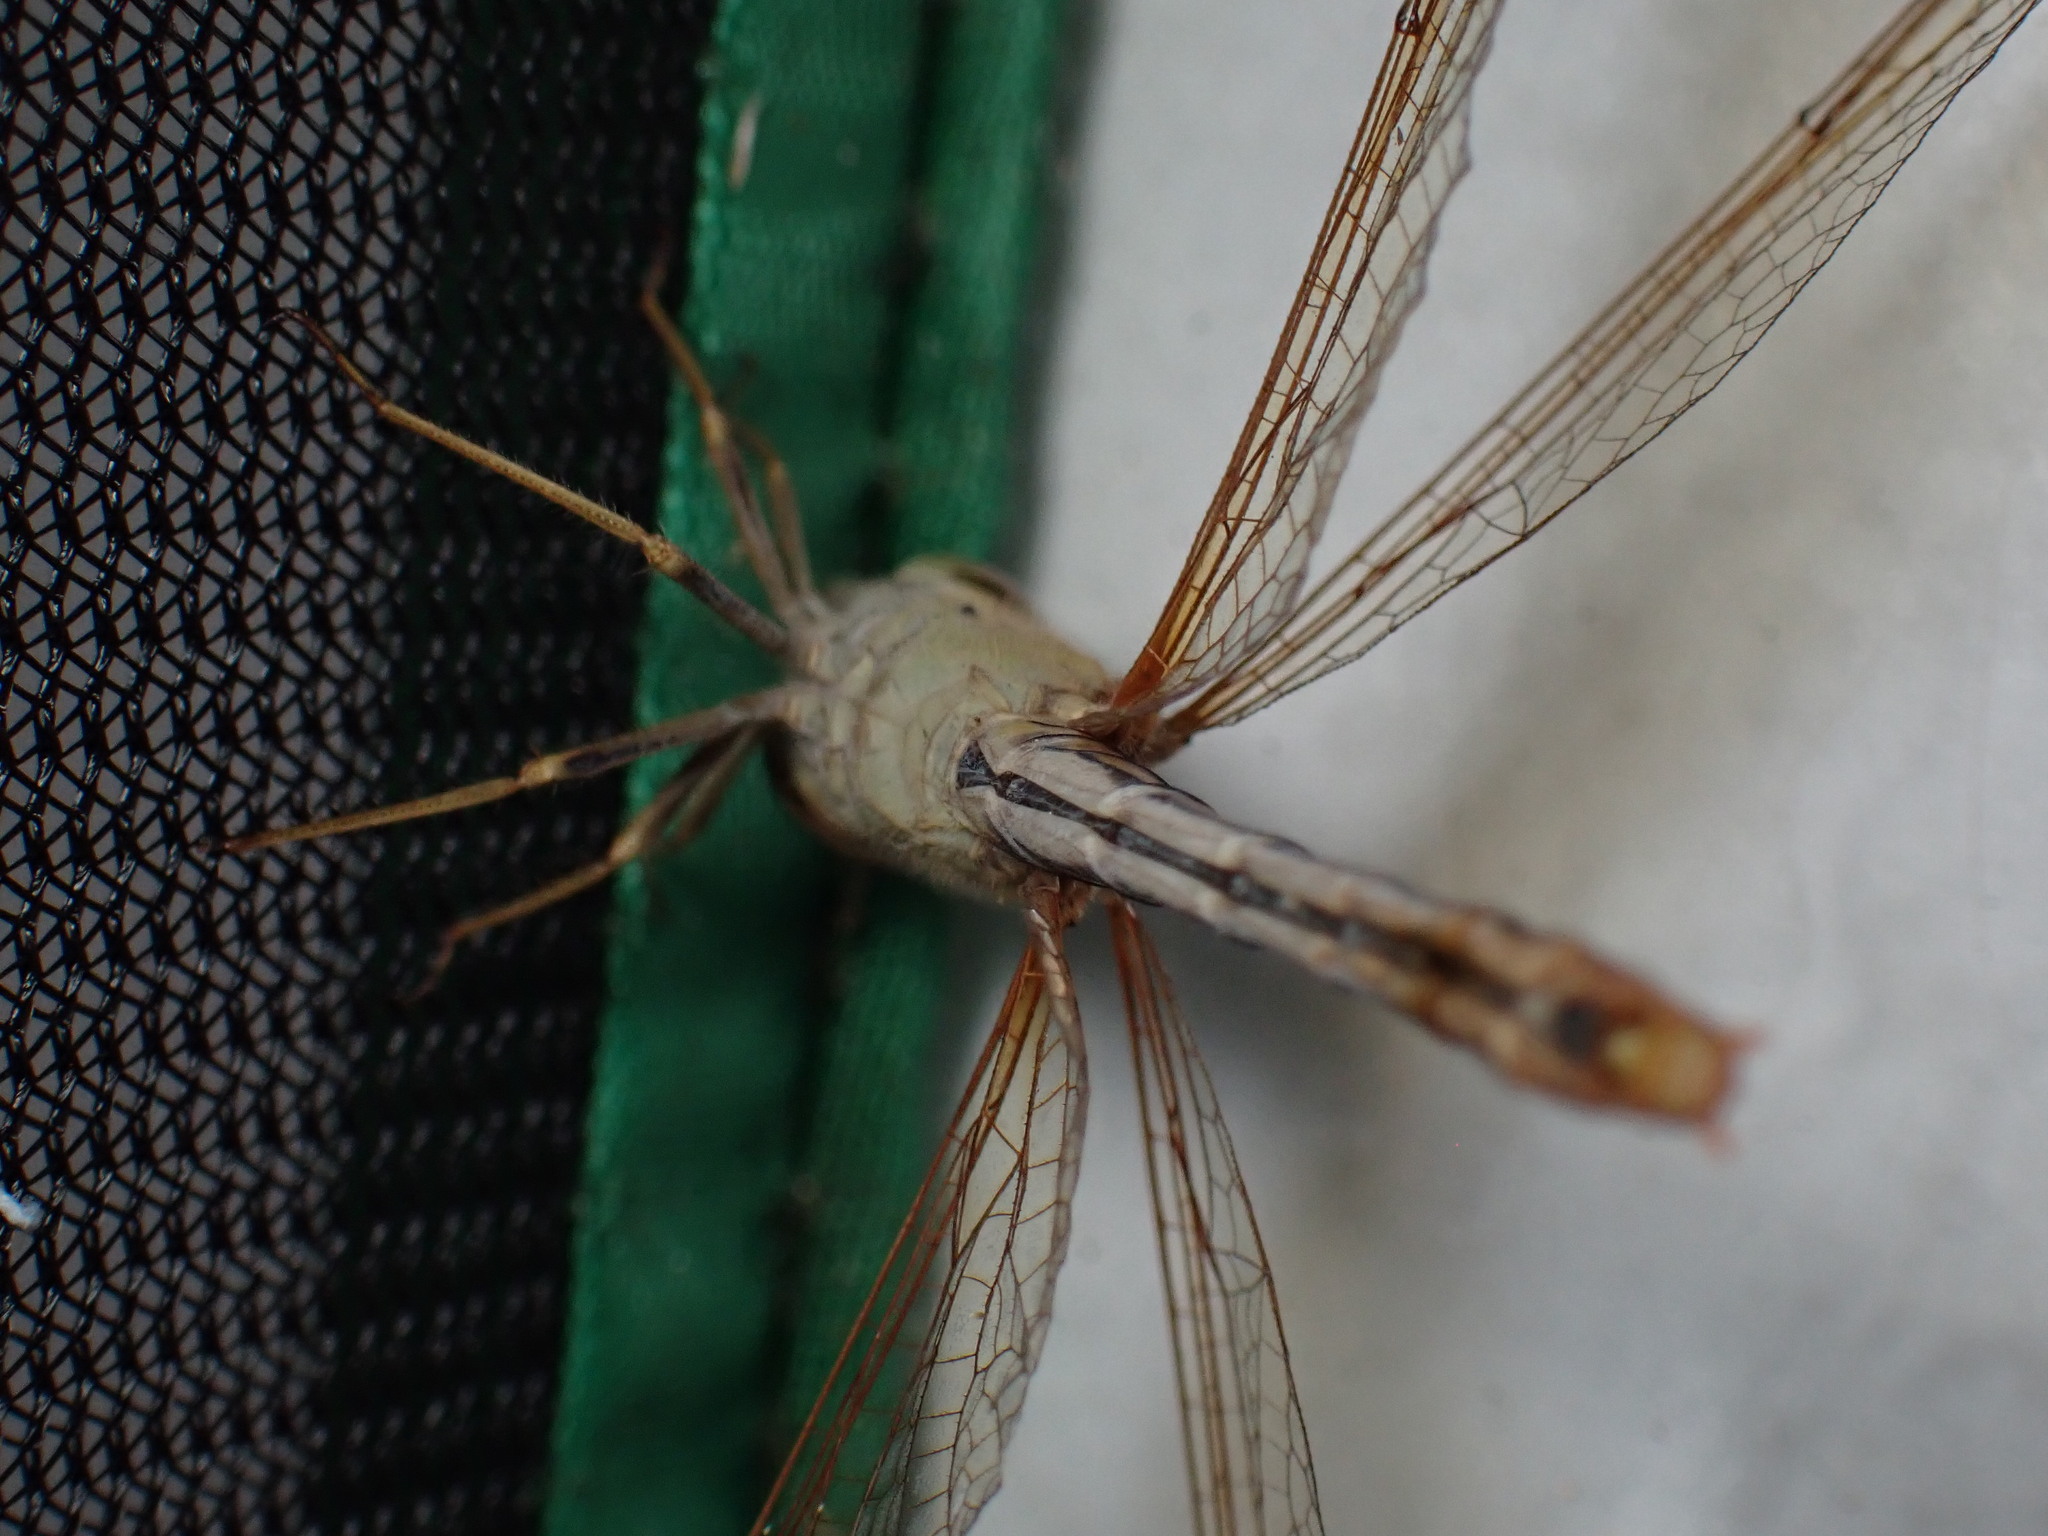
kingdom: Animalia
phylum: Arthropoda
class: Insecta
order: Odonata
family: Libellulidae
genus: Diplacodes
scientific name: Diplacodes haematodes
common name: Scarlet percher
